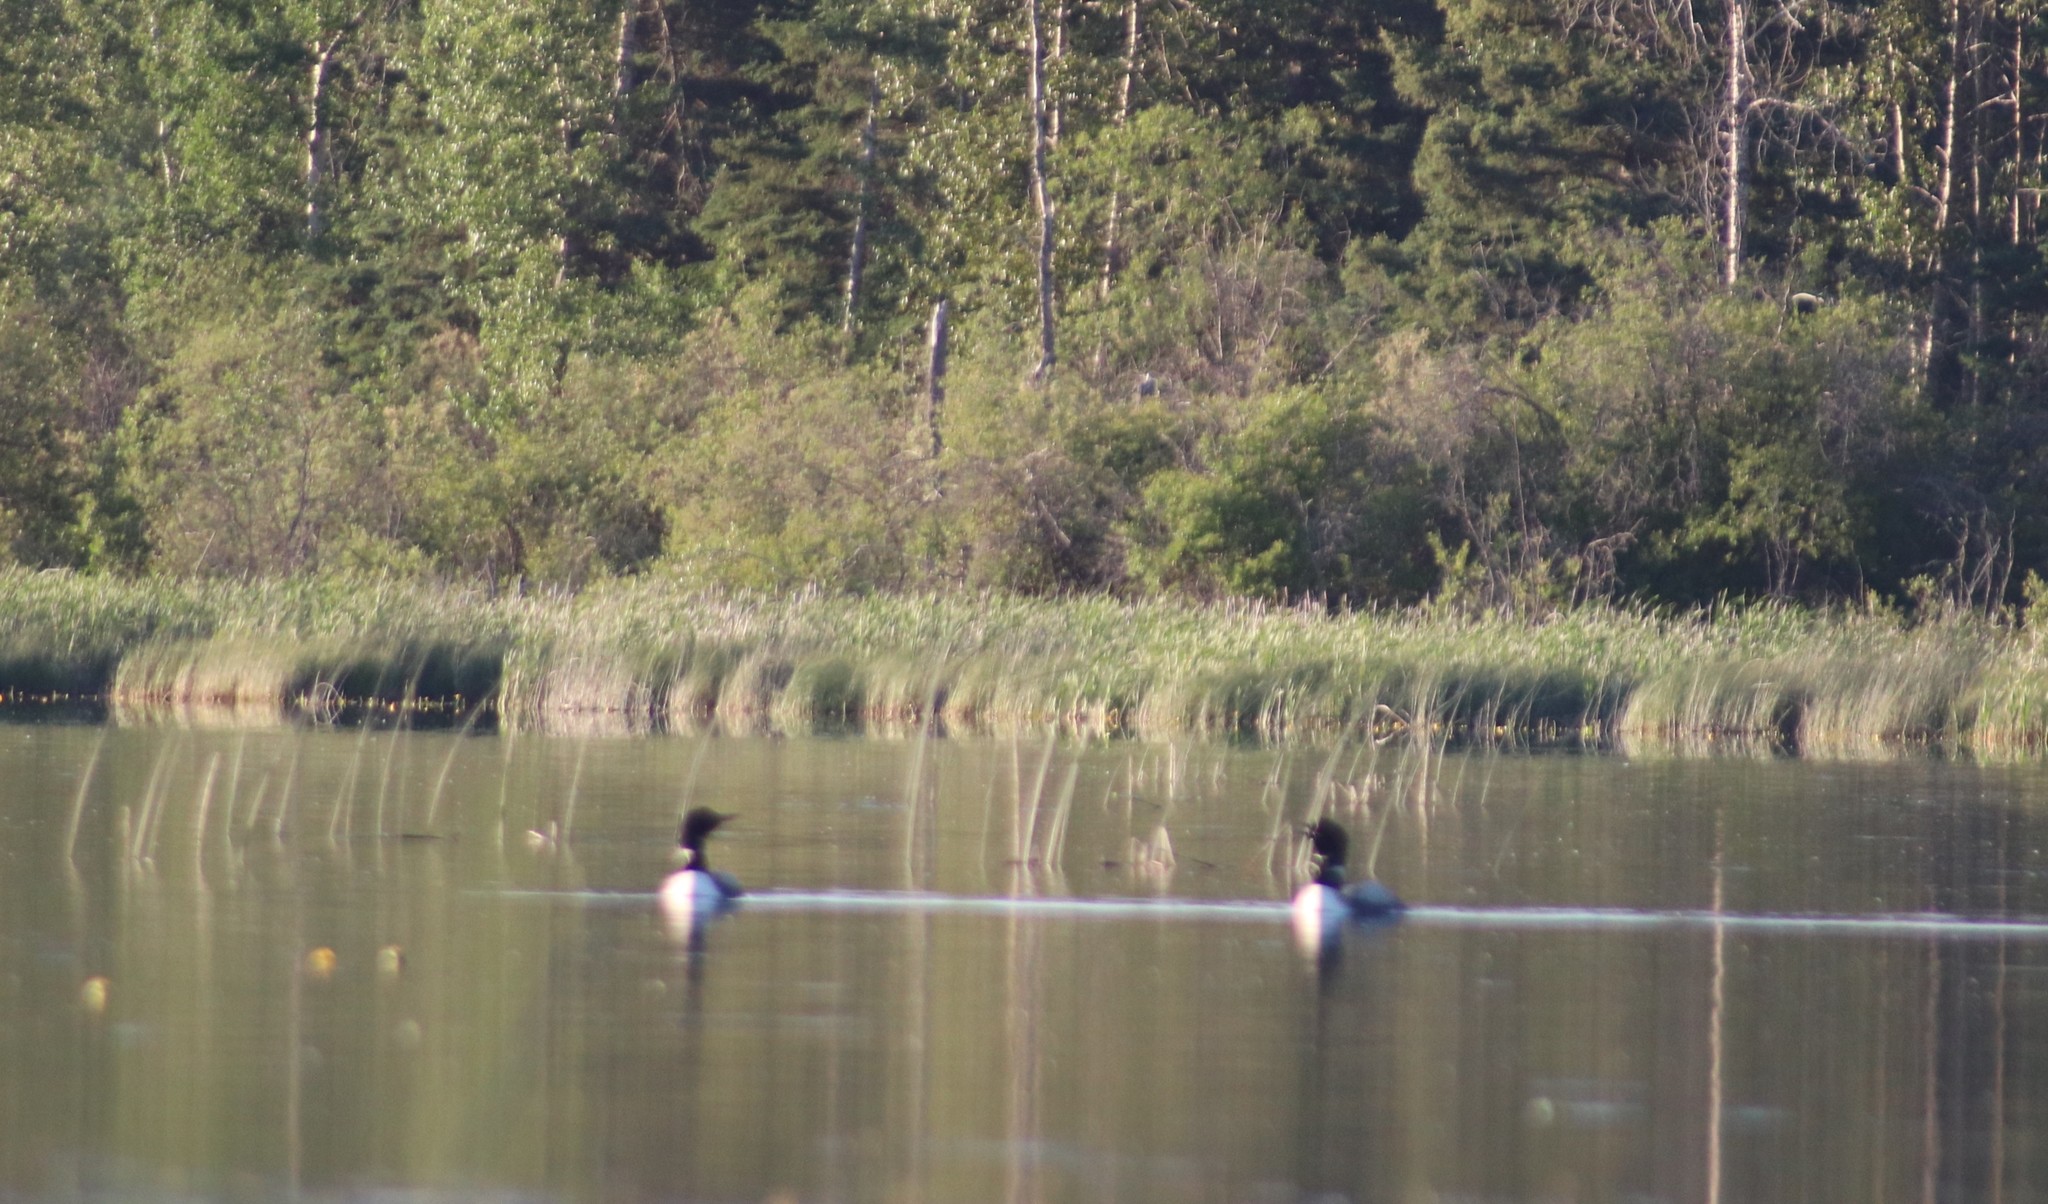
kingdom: Animalia
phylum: Chordata
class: Aves
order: Gaviiformes
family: Gaviidae
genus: Gavia
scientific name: Gavia immer
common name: Common loon
